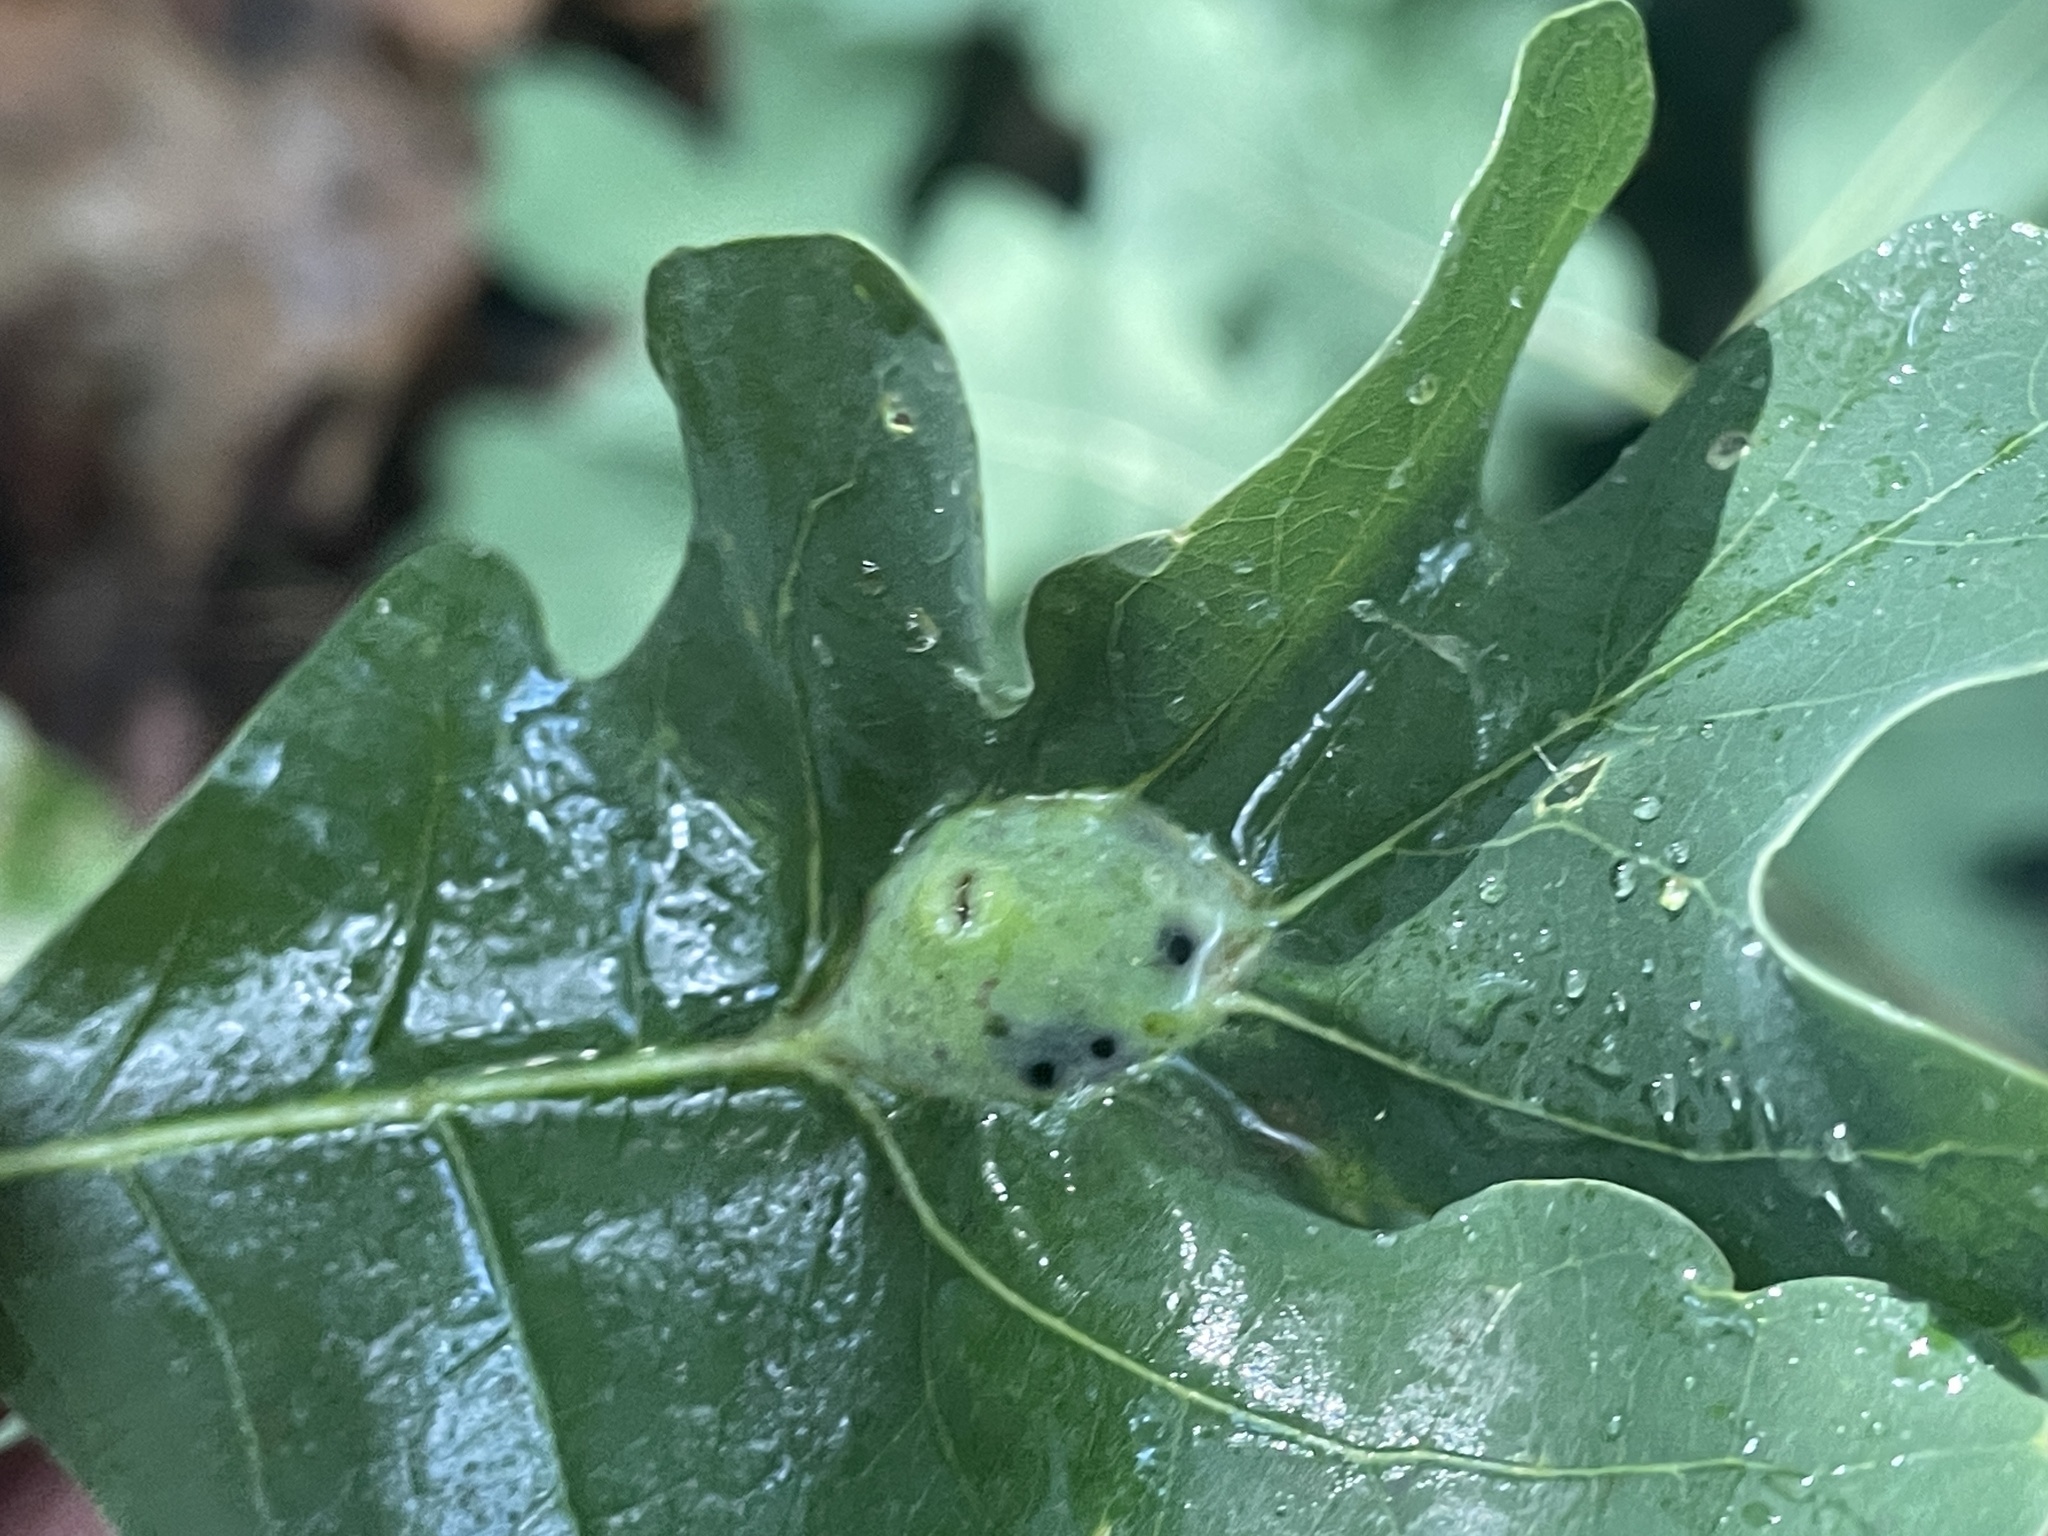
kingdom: Animalia
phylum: Arthropoda
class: Insecta
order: Hymenoptera
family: Cynipidae
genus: Andricus
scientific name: Andricus
